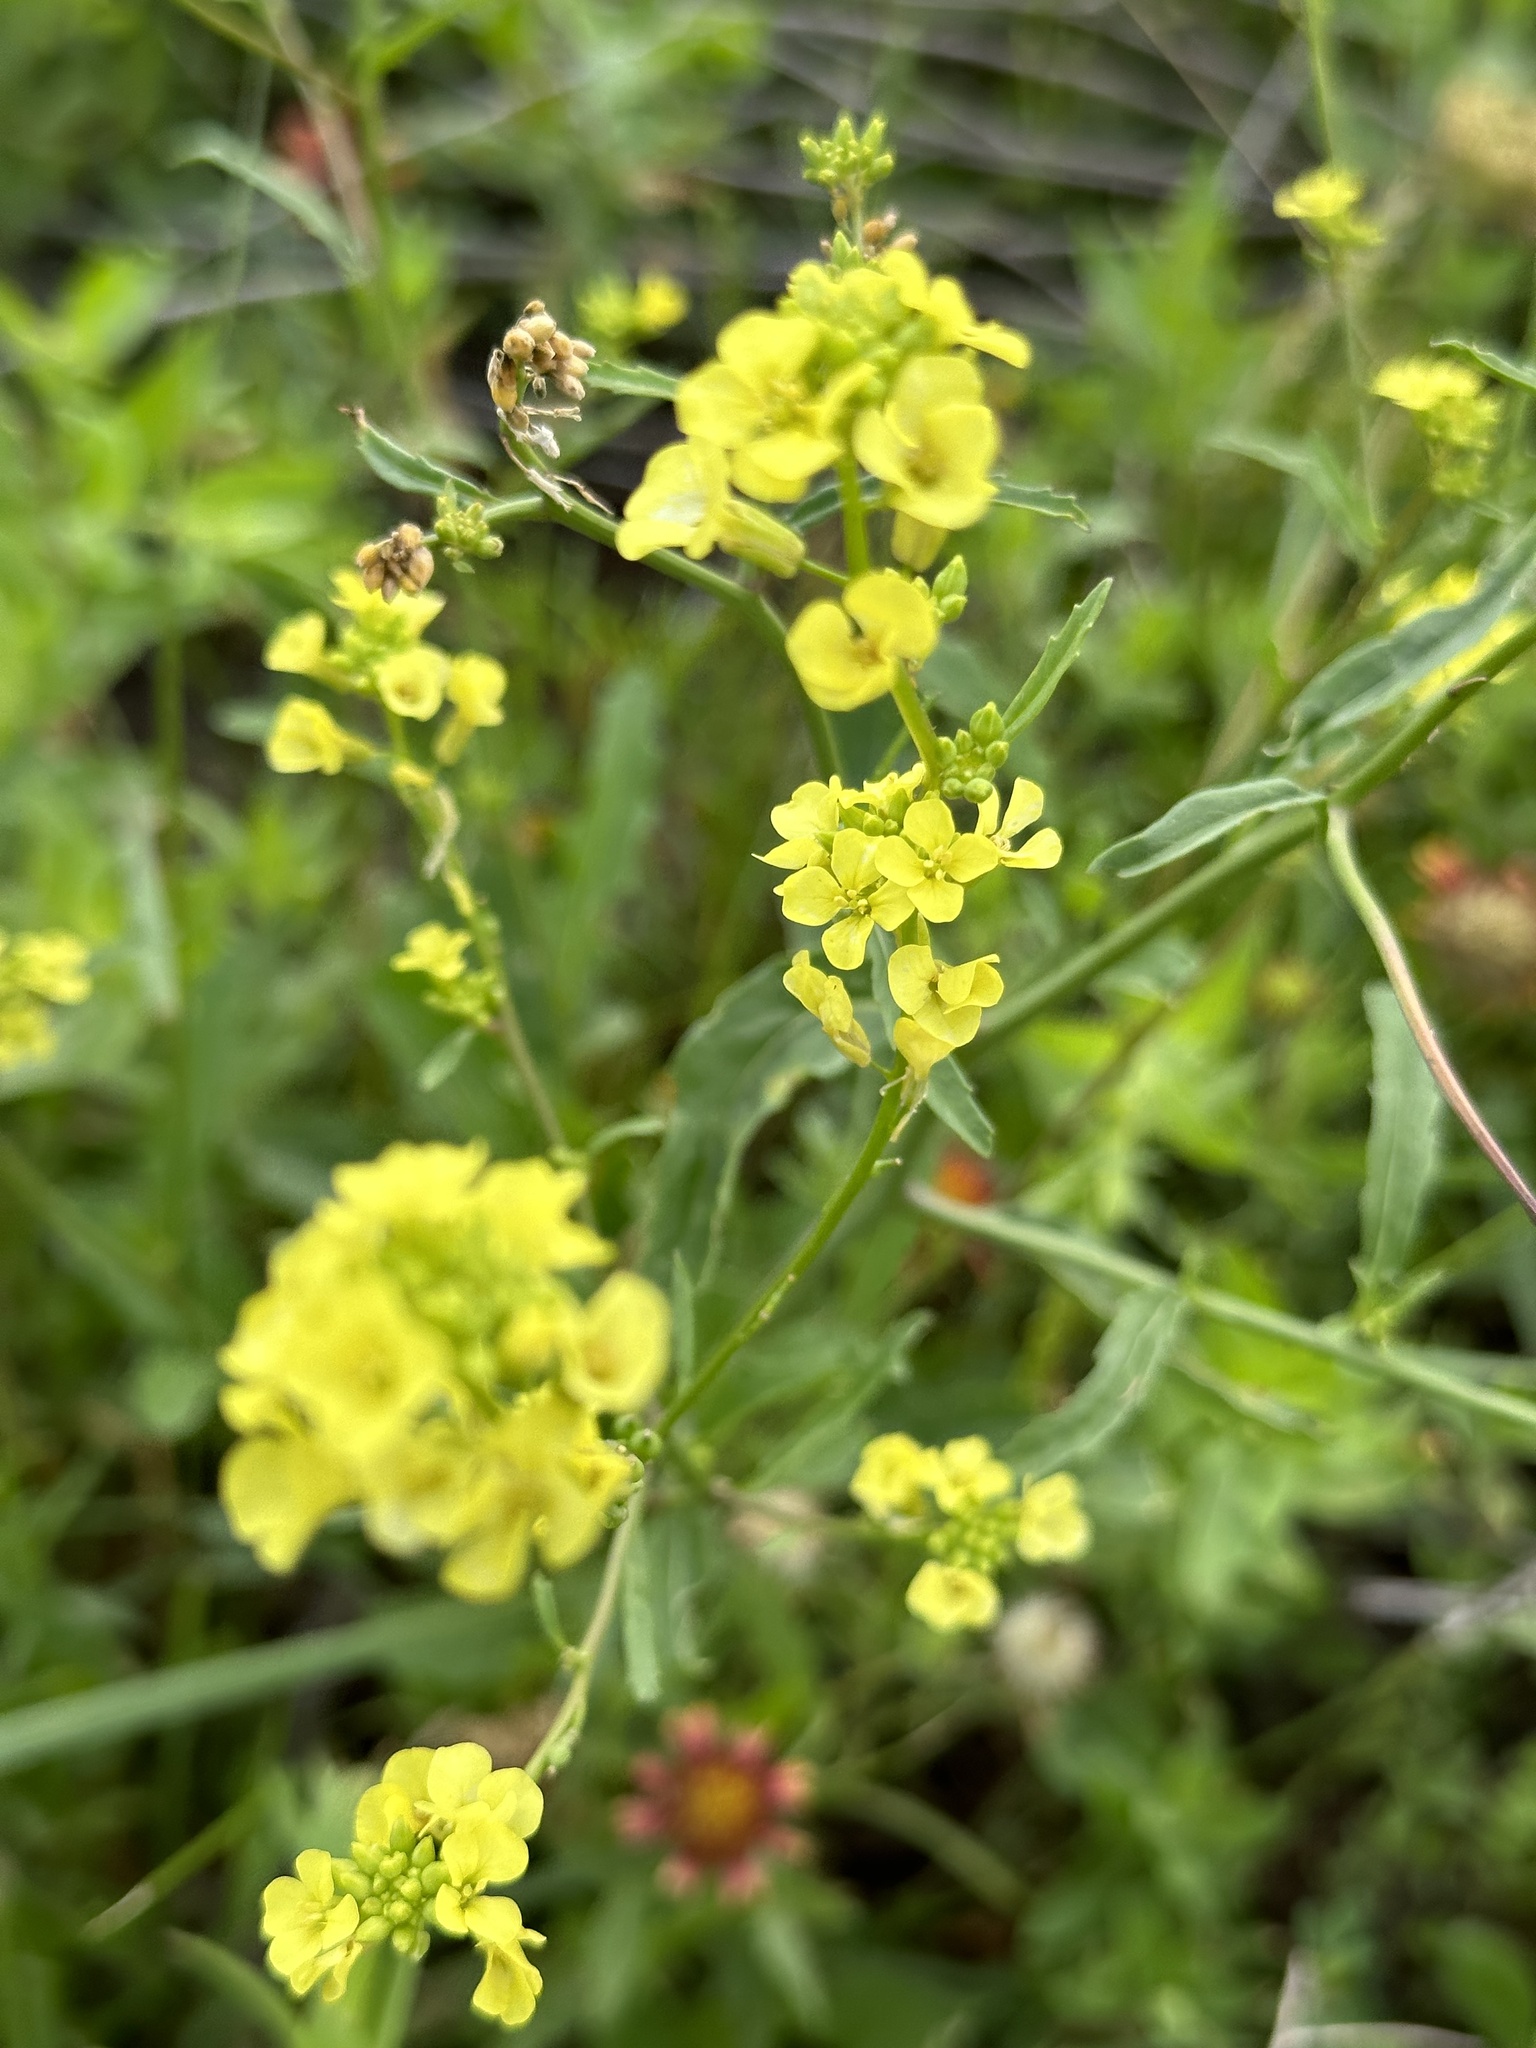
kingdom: Plantae
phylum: Tracheophyta
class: Magnoliopsida
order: Brassicales
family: Brassicaceae
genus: Rapistrum
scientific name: Rapistrum rugosum
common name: Annual bastardcabbage
